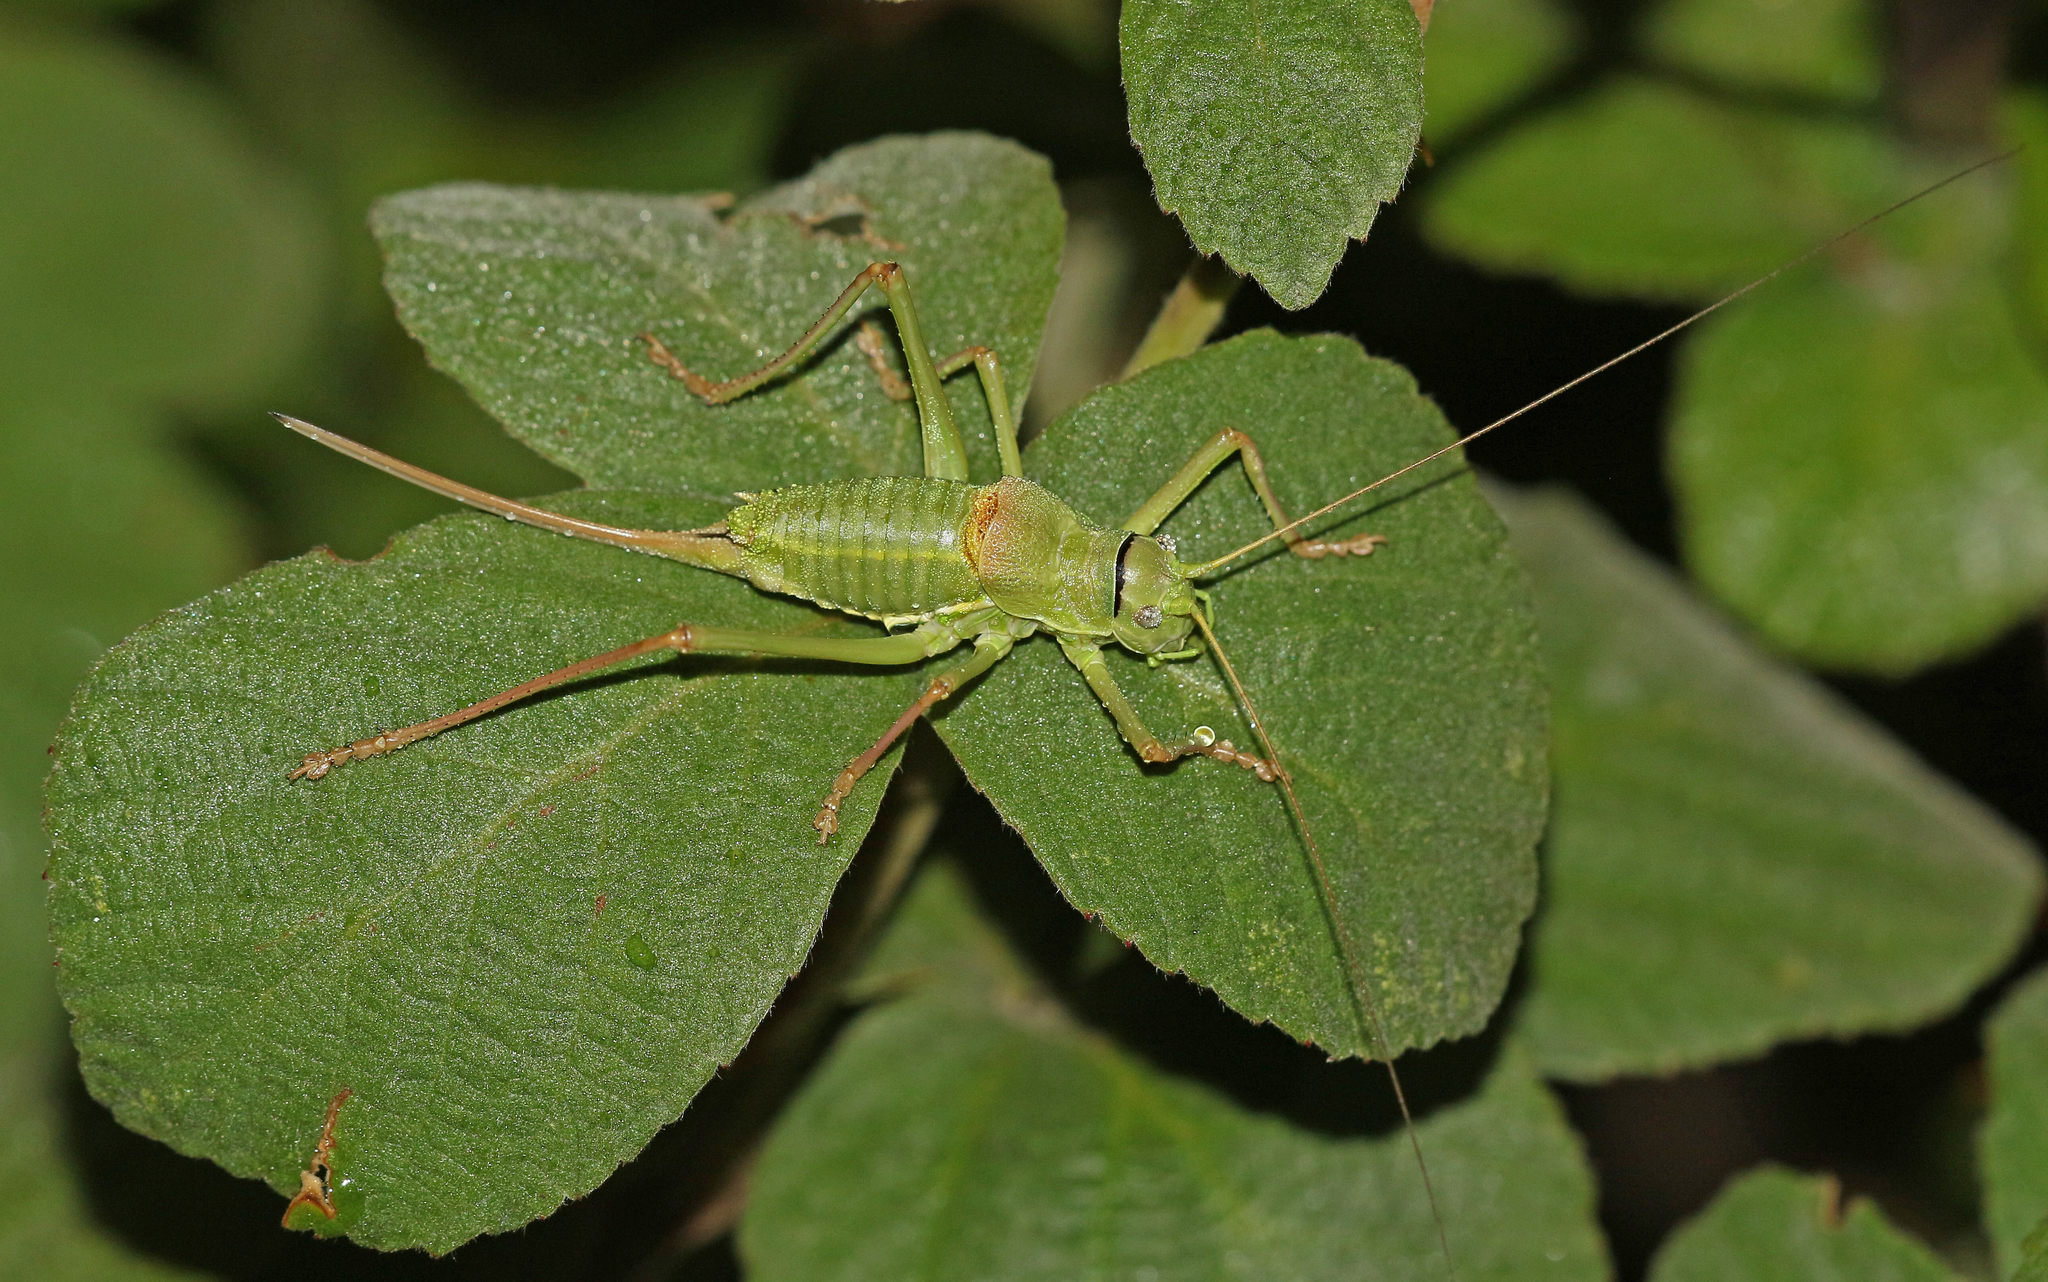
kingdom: Animalia
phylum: Arthropoda
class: Insecta
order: Orthoptera
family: Tettigoniidae
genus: Ephippiger
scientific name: Ephippiger terrestris
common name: Alpine saddle-backed bush-cricket
